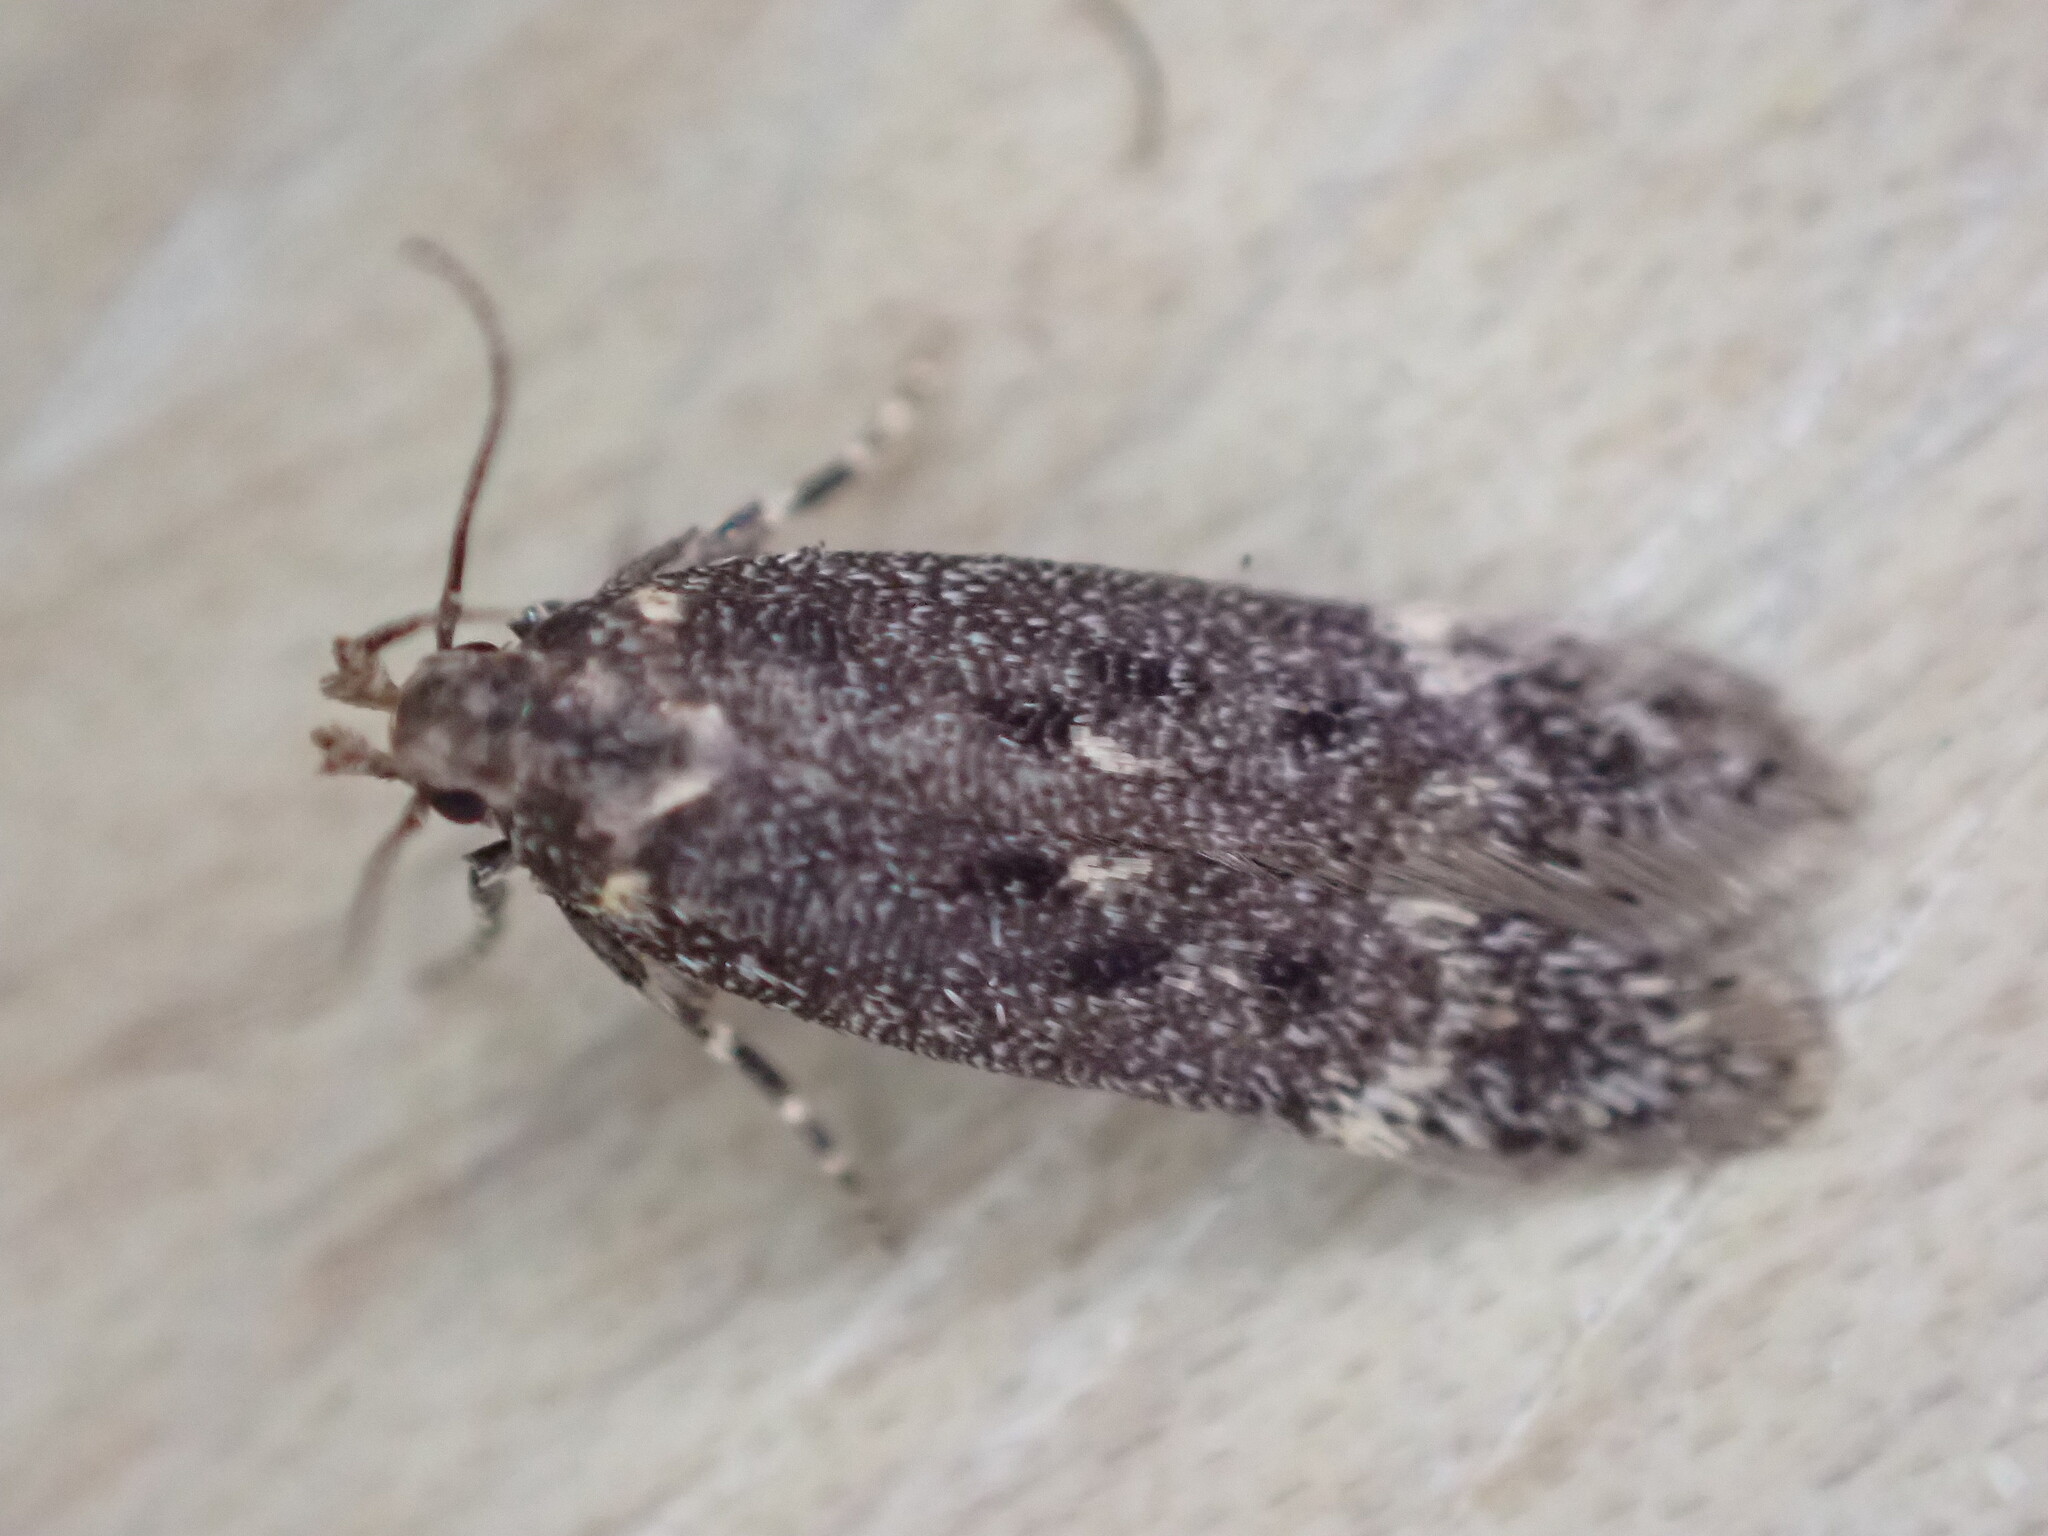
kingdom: Animalia
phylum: Arthropoda
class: Insecta
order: Lepidoptera
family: Gelechiidae
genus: Bryotropha
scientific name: Bryotropha affinis
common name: Dark groundling
